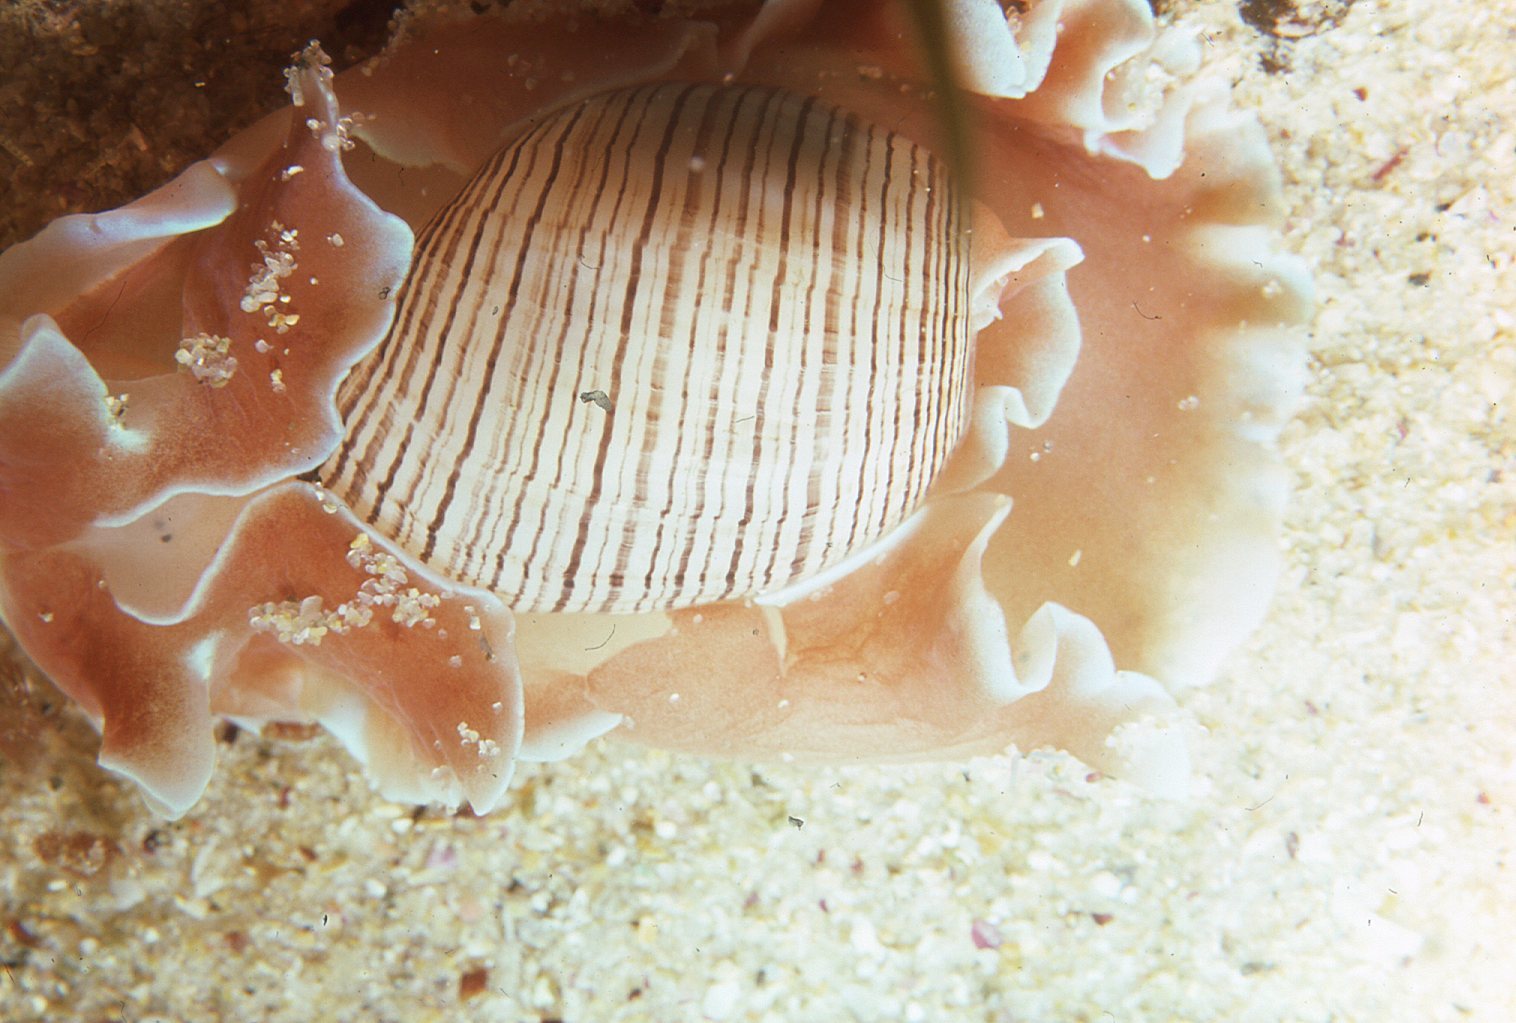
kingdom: Animalia
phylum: Mollusca
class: Gastropoda
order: Cephalaspidea
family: Aplustridae
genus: Hydatina
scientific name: Hydatina physis
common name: Brown-line paperbubble
